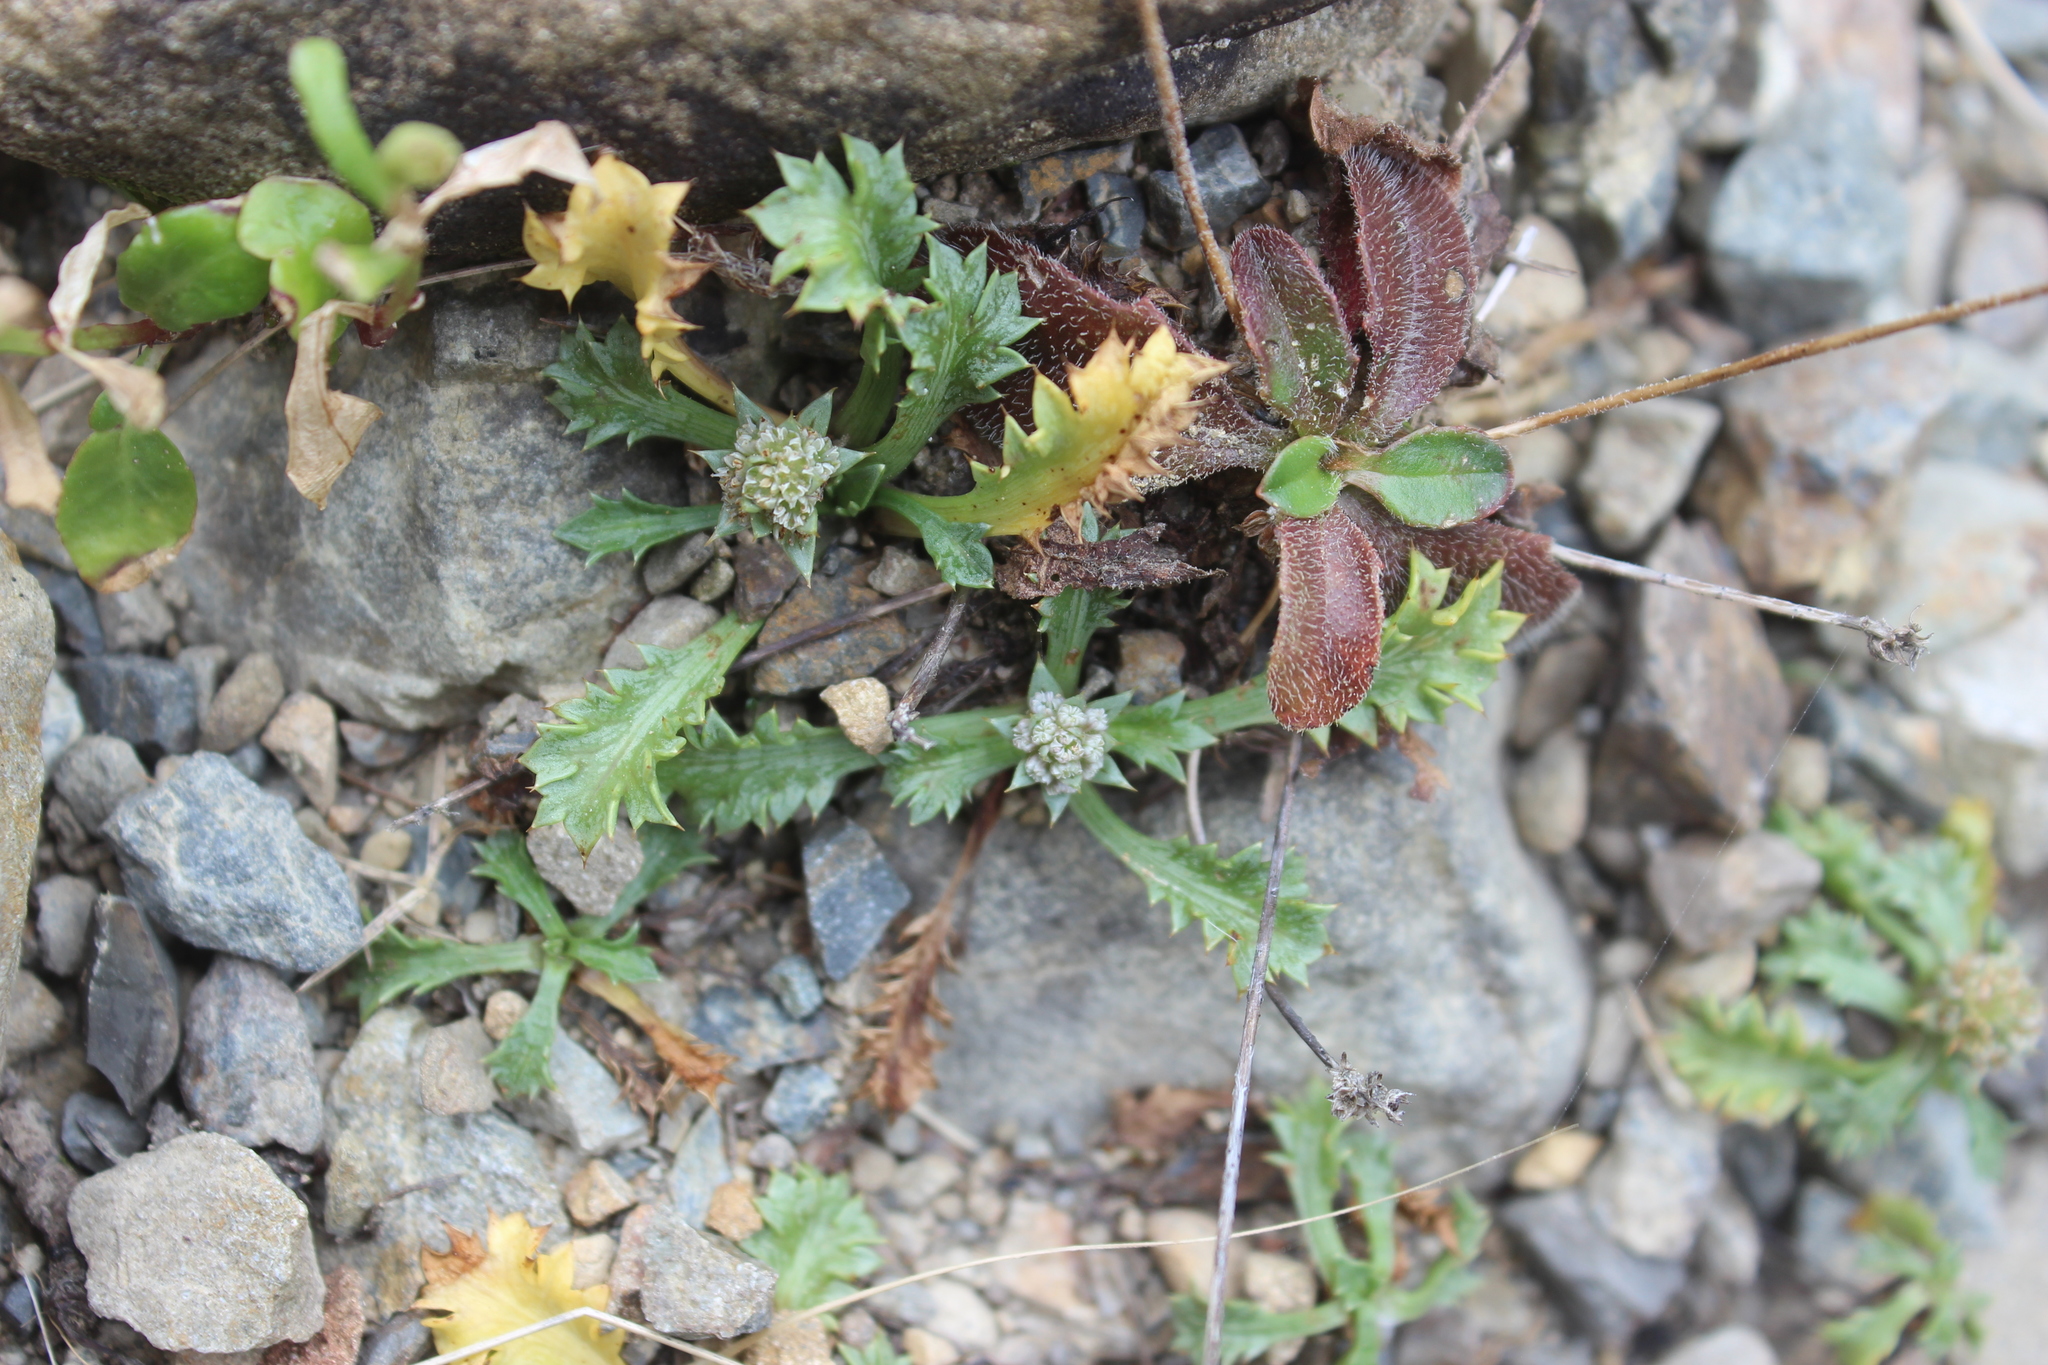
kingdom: Plantae
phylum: Tracheophyta
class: Magnoliopsida
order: Apiales
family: Apiaceae
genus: Eryngium
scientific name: Eryngium vesiculosum
